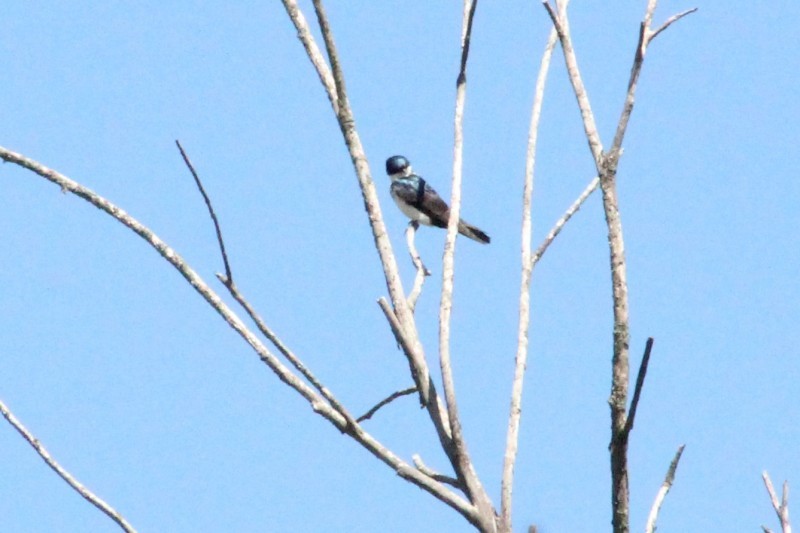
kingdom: Animalia
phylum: Chordata
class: Aves
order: Passeriformes
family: Hirundinidae
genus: Notiochelidon
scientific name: Notiochelidon cyanoleuca
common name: Blue-and-white swallow
